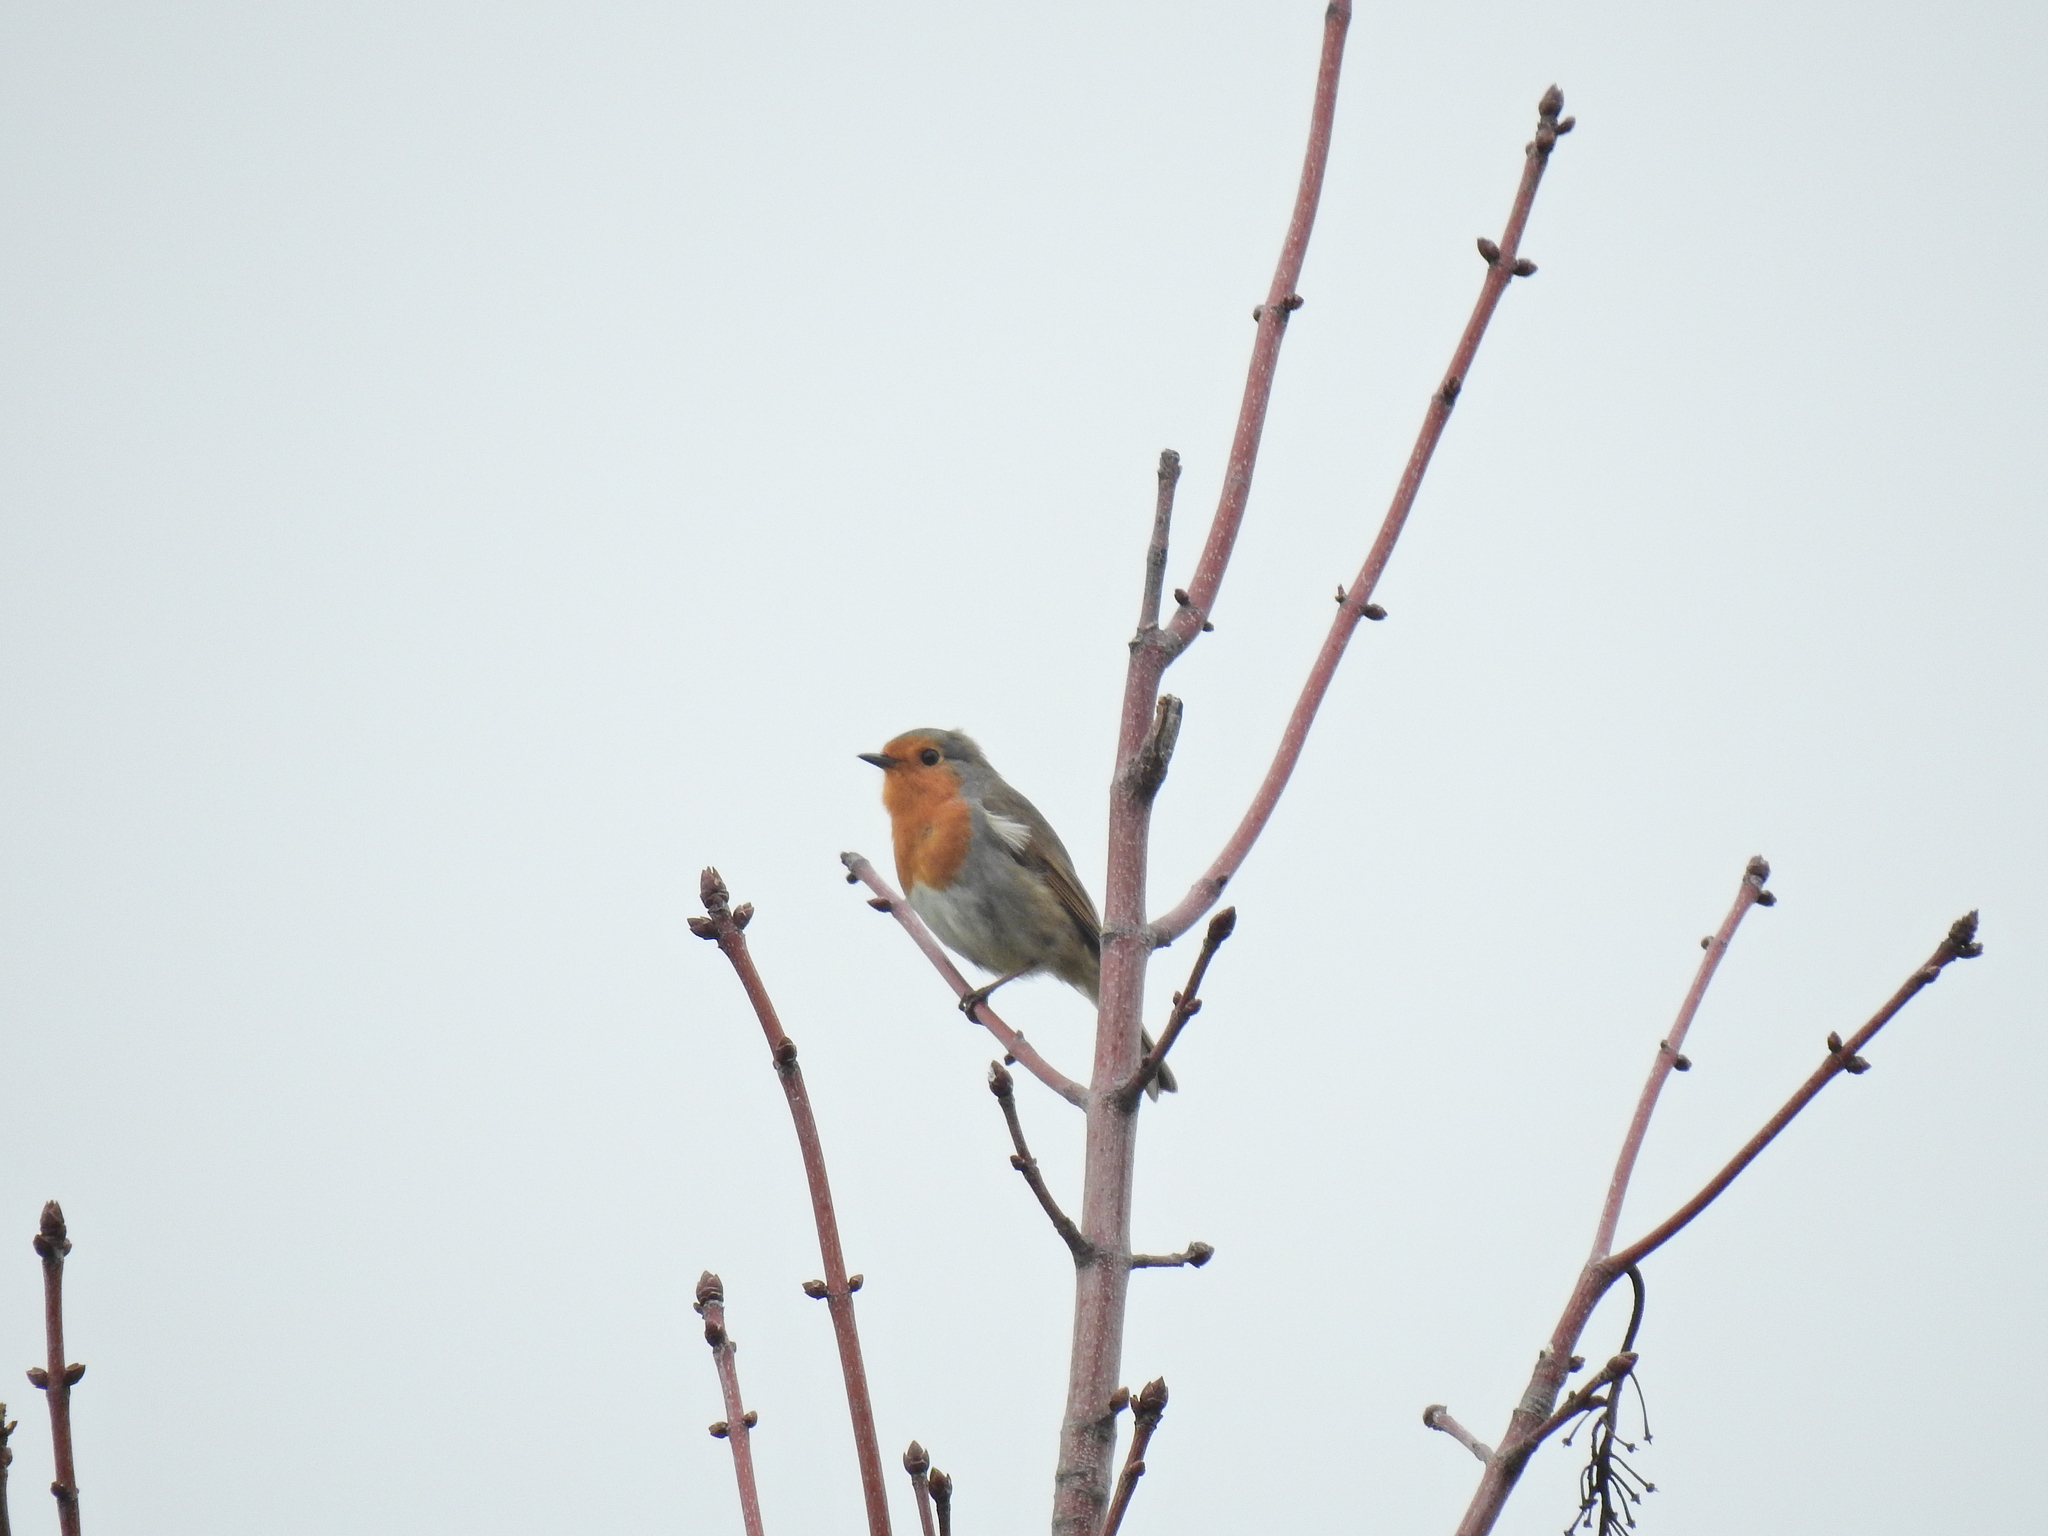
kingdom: Animalia
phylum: Chordata
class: Aves
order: Passeriformes
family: Muscicapidae
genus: Erithacus
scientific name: Erithacus rubecula
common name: European robin
